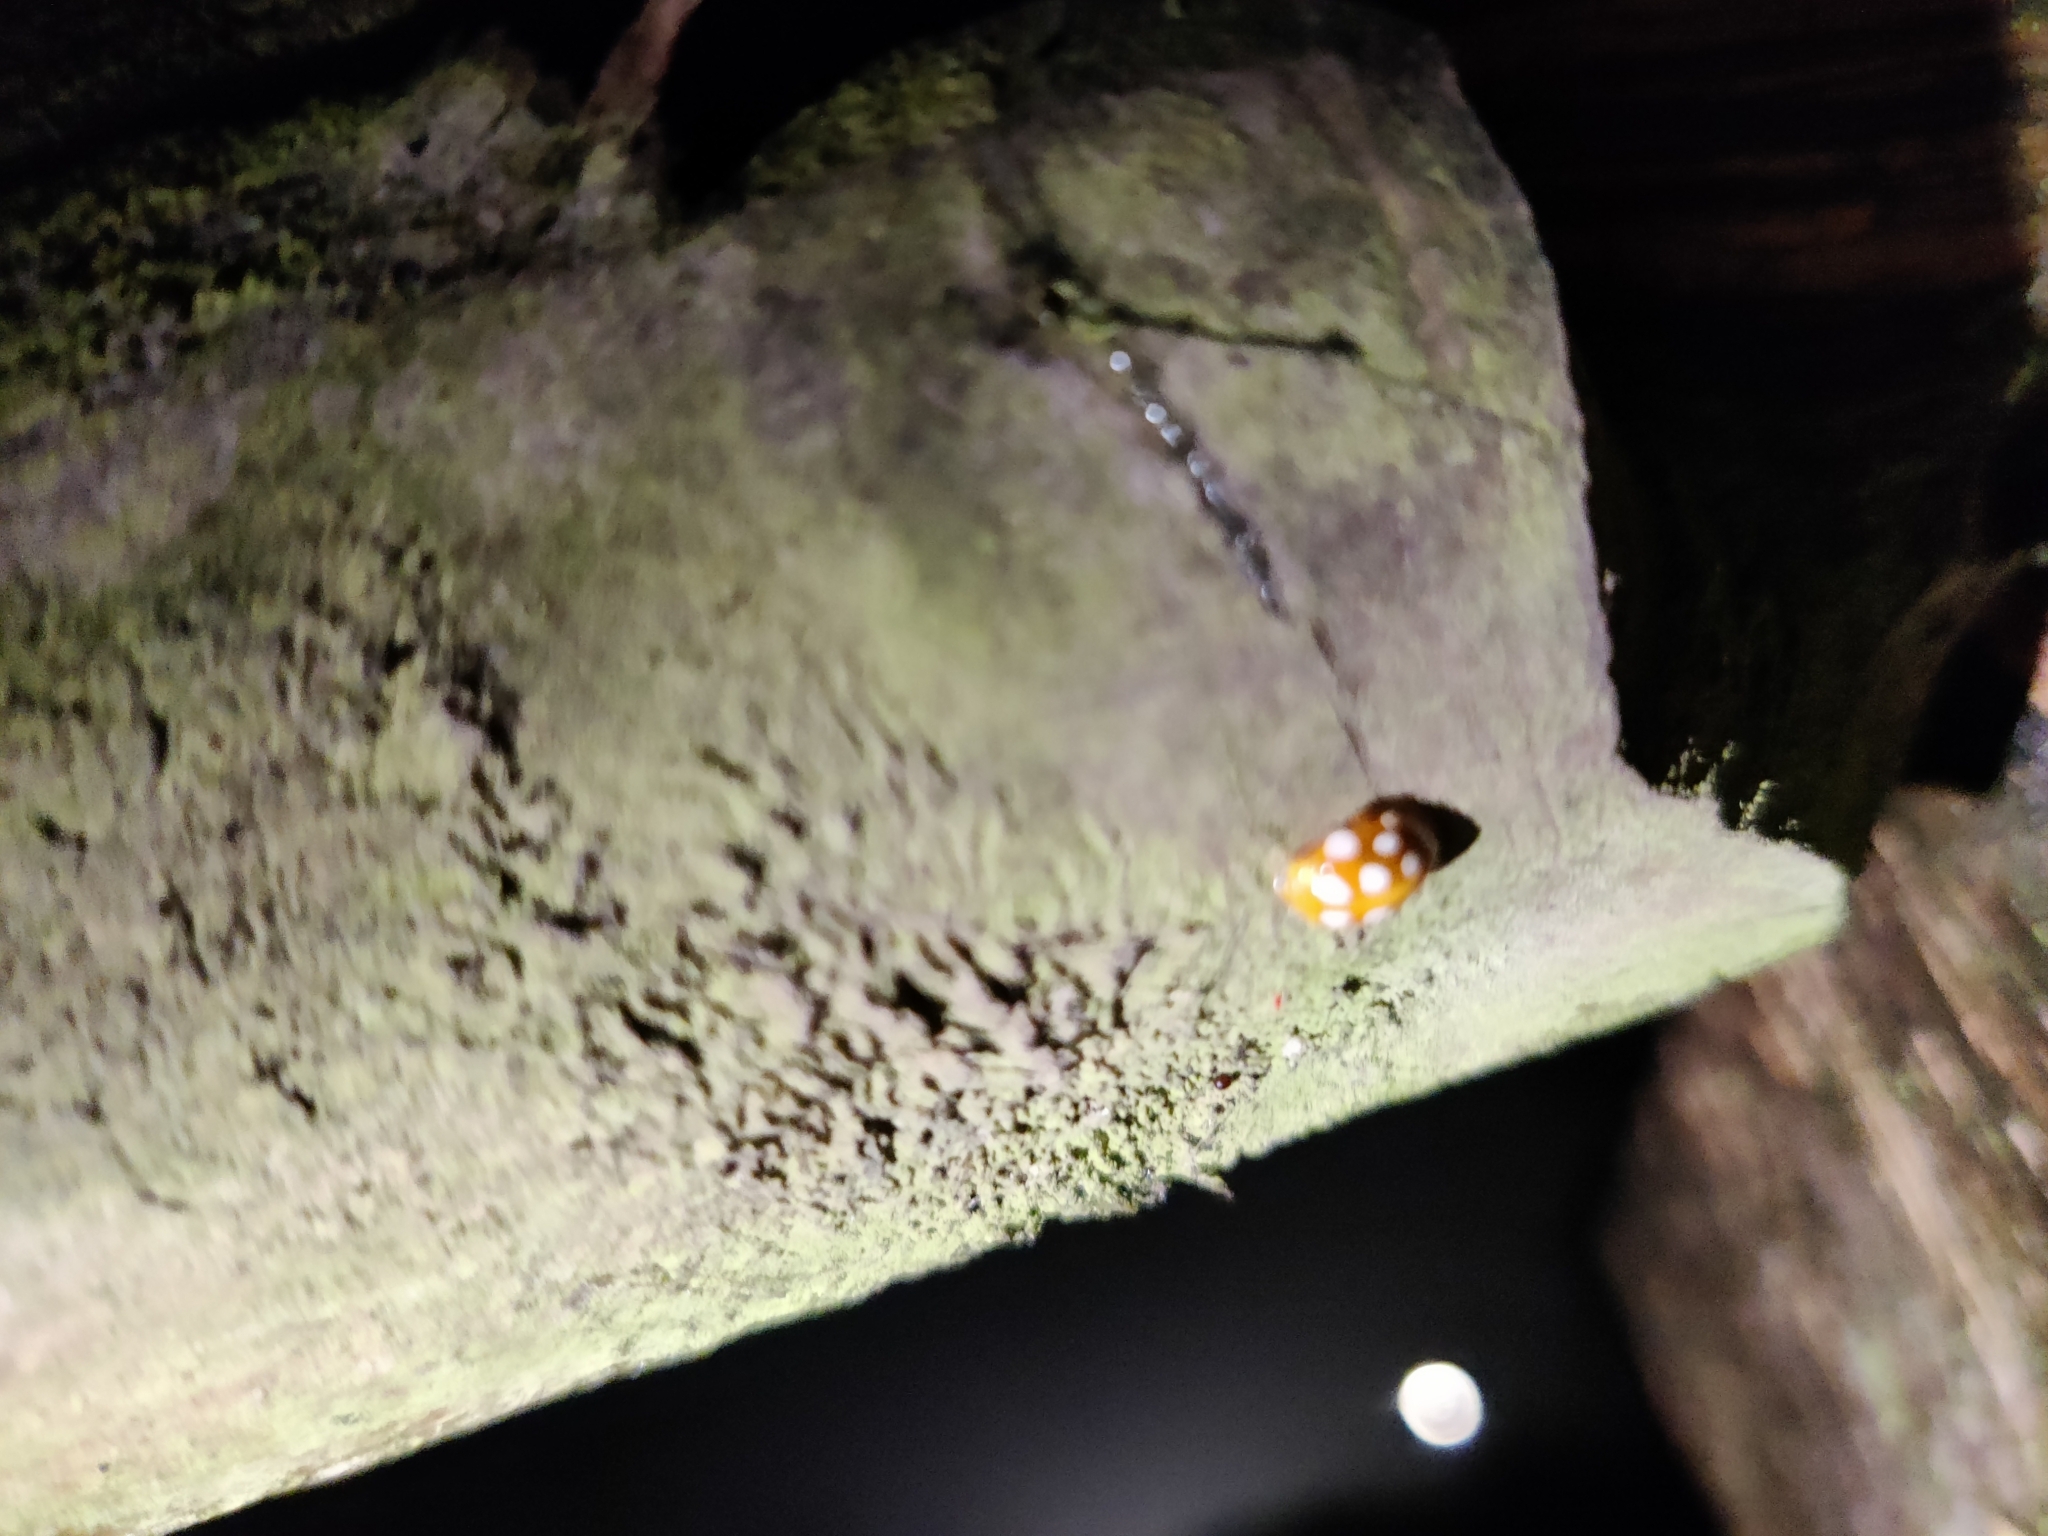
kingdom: Animalia
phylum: Arthropoda
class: Insecta
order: Coleoptera
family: Coccinellidae
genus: Halyzia
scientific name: Halyzia sedecimguttata
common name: Orange ladybird
